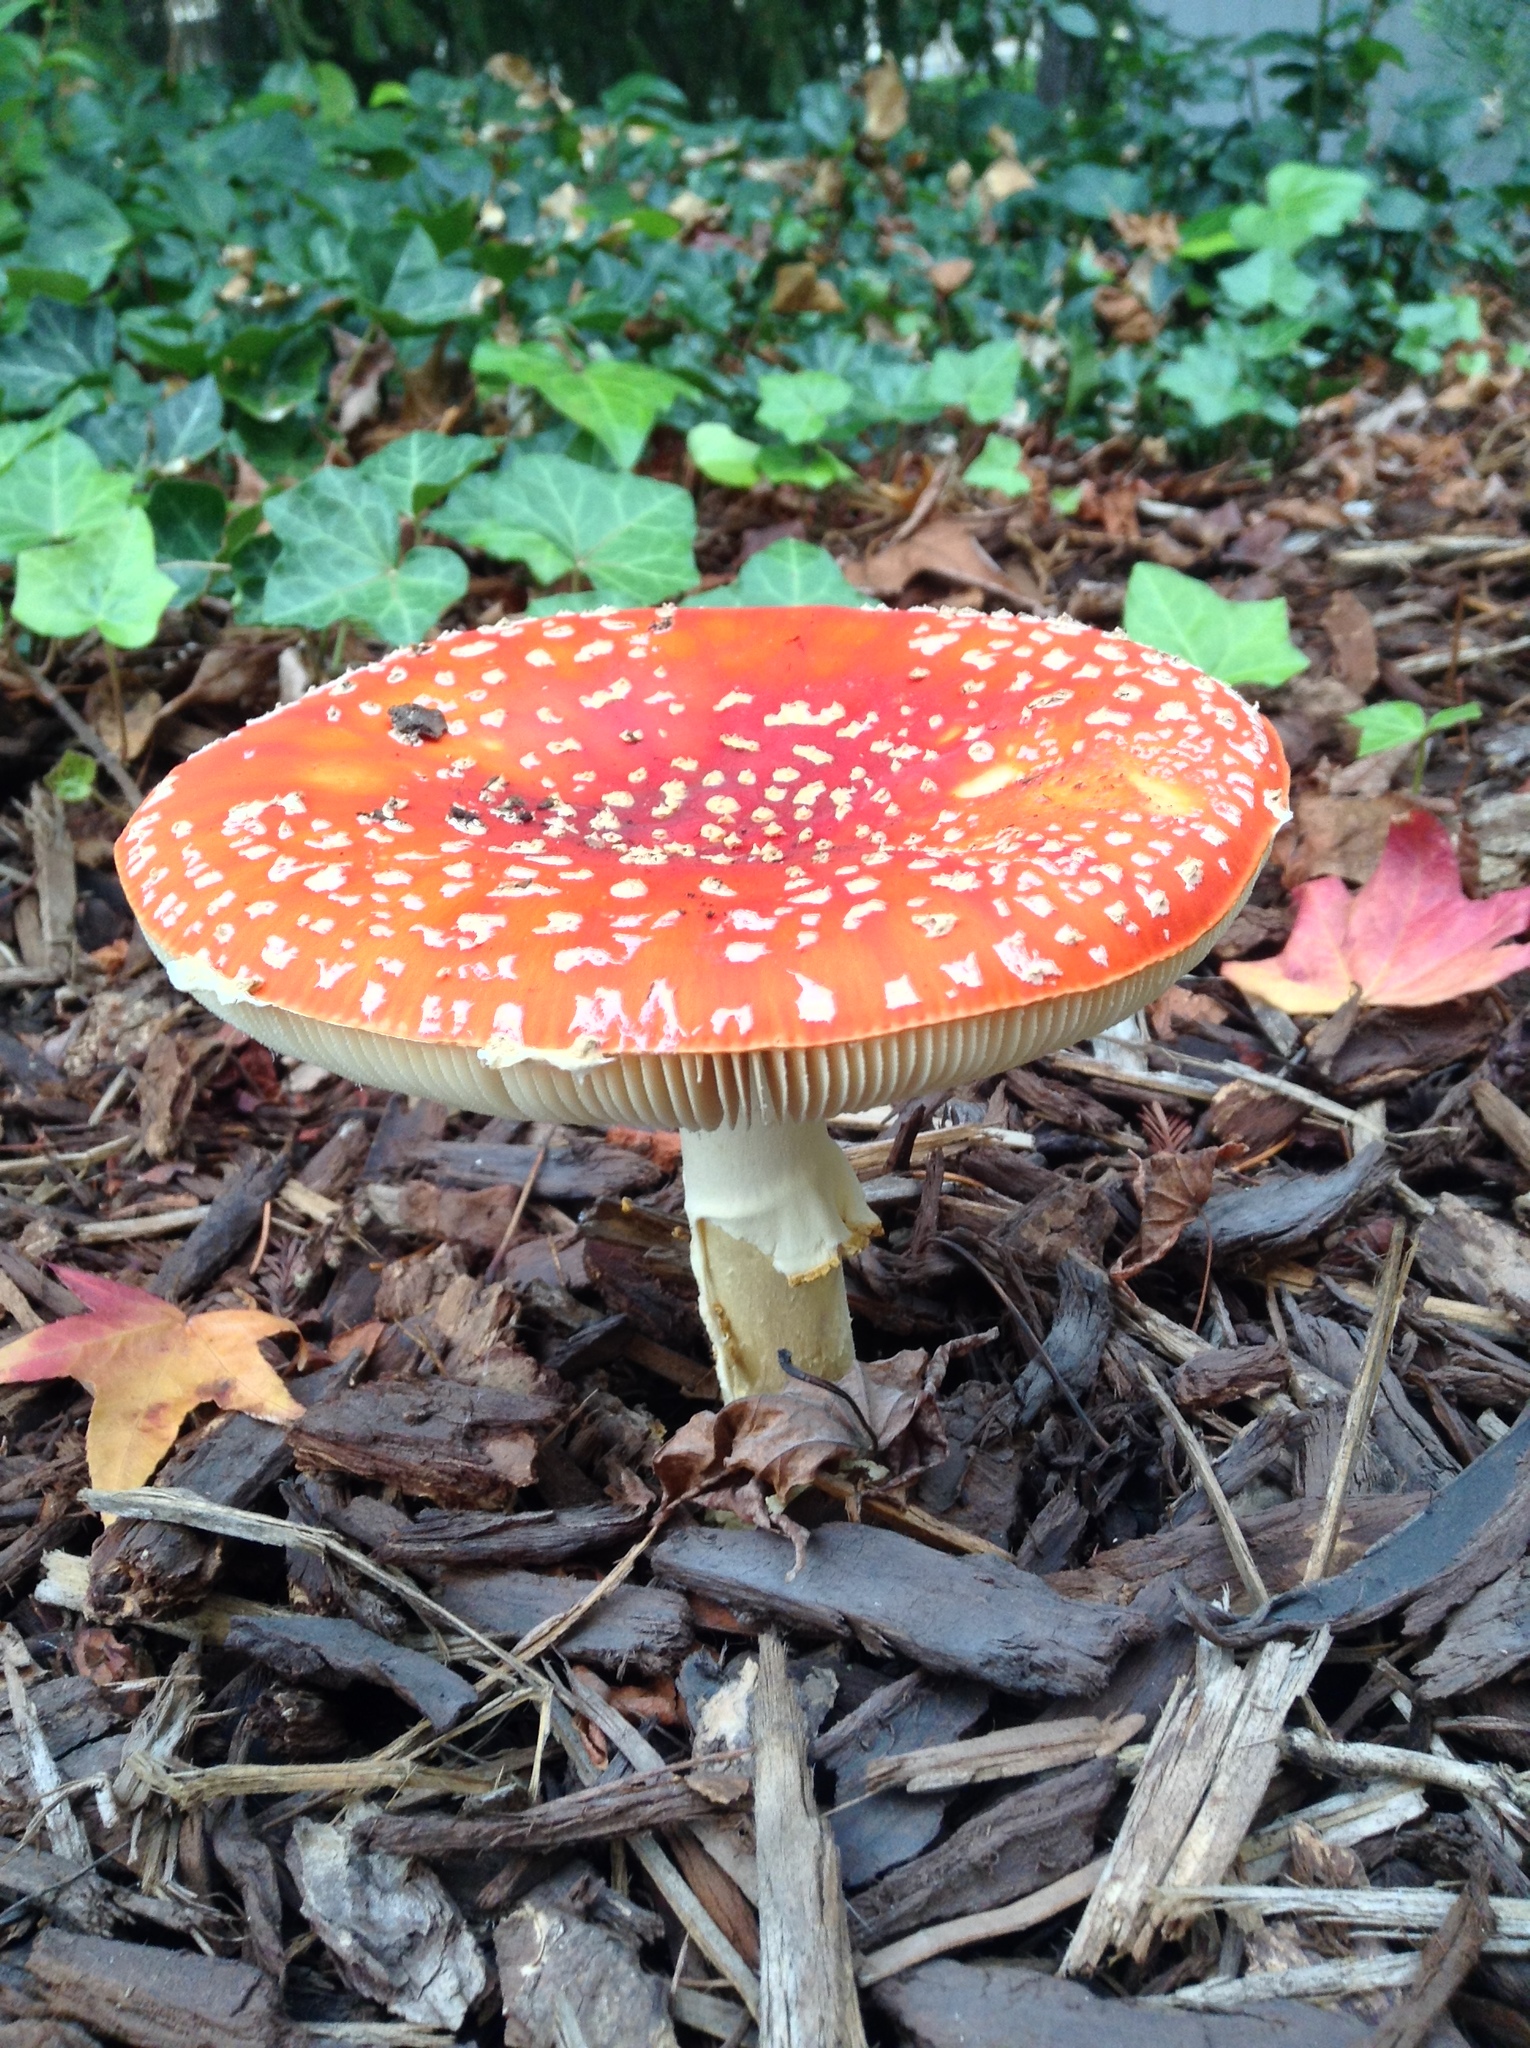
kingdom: Fungi
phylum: Basidiomycota
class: Agaricomycetes
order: Agaricales
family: Amanitaceae
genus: Amanita
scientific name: Amanita muscaria
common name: Fly agaric
